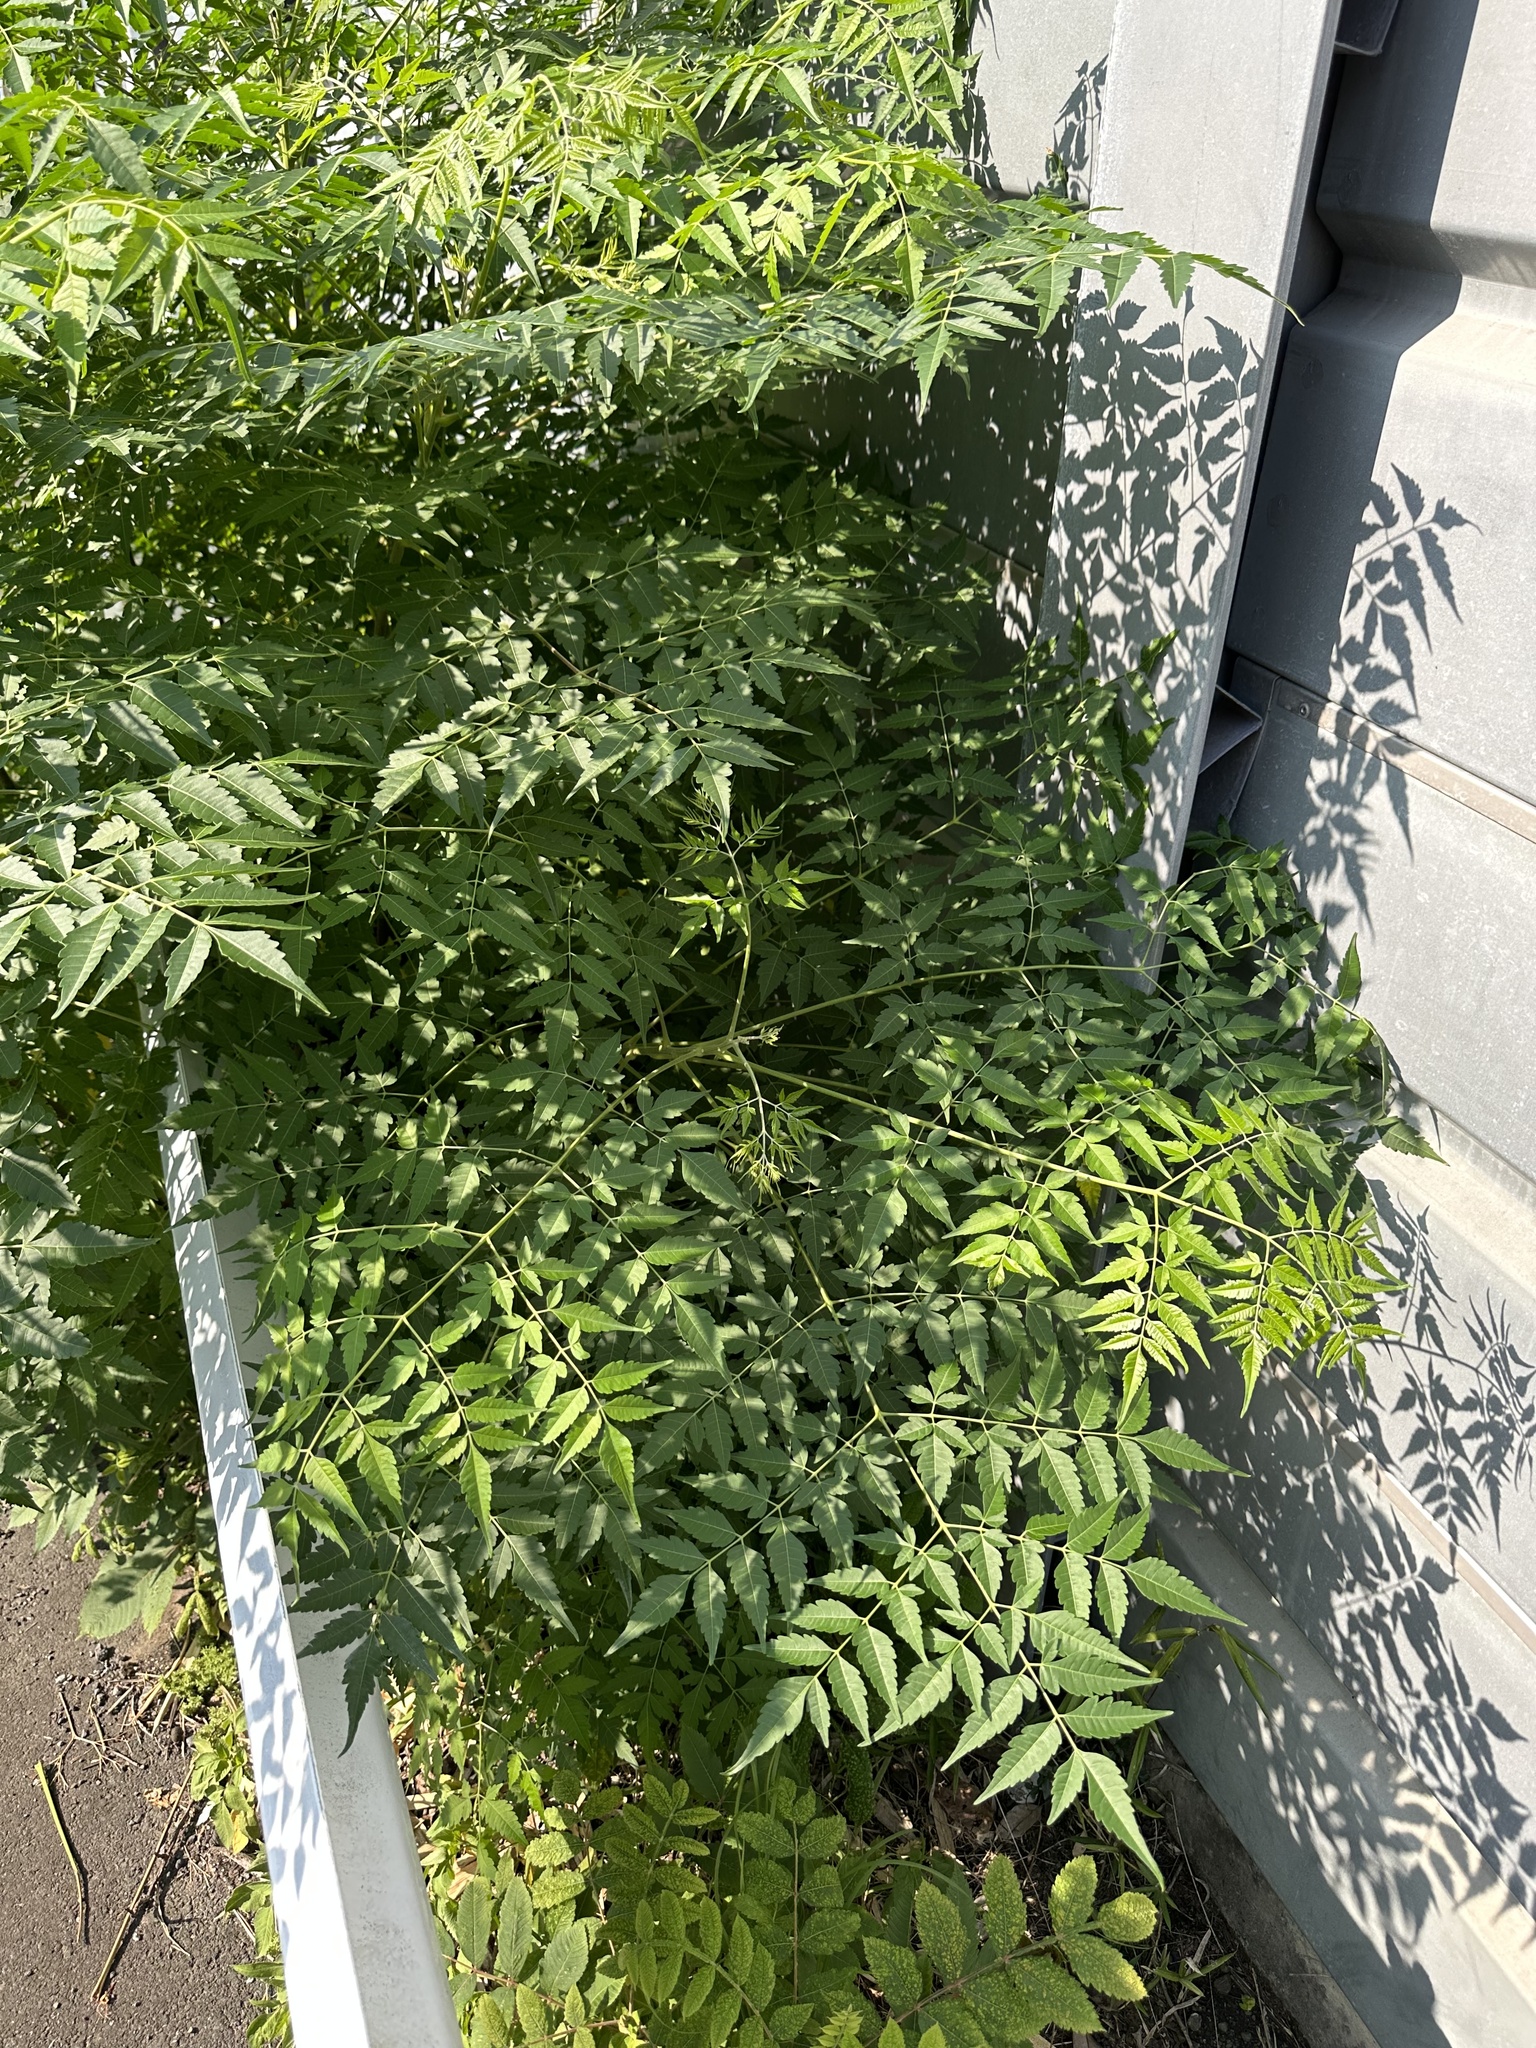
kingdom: Plantae
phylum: Tracheophyta
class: Magnoliopsida
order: Sapindales
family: Meliaceae
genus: Melia
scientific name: Melia azedarach
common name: Chinaberrytree
